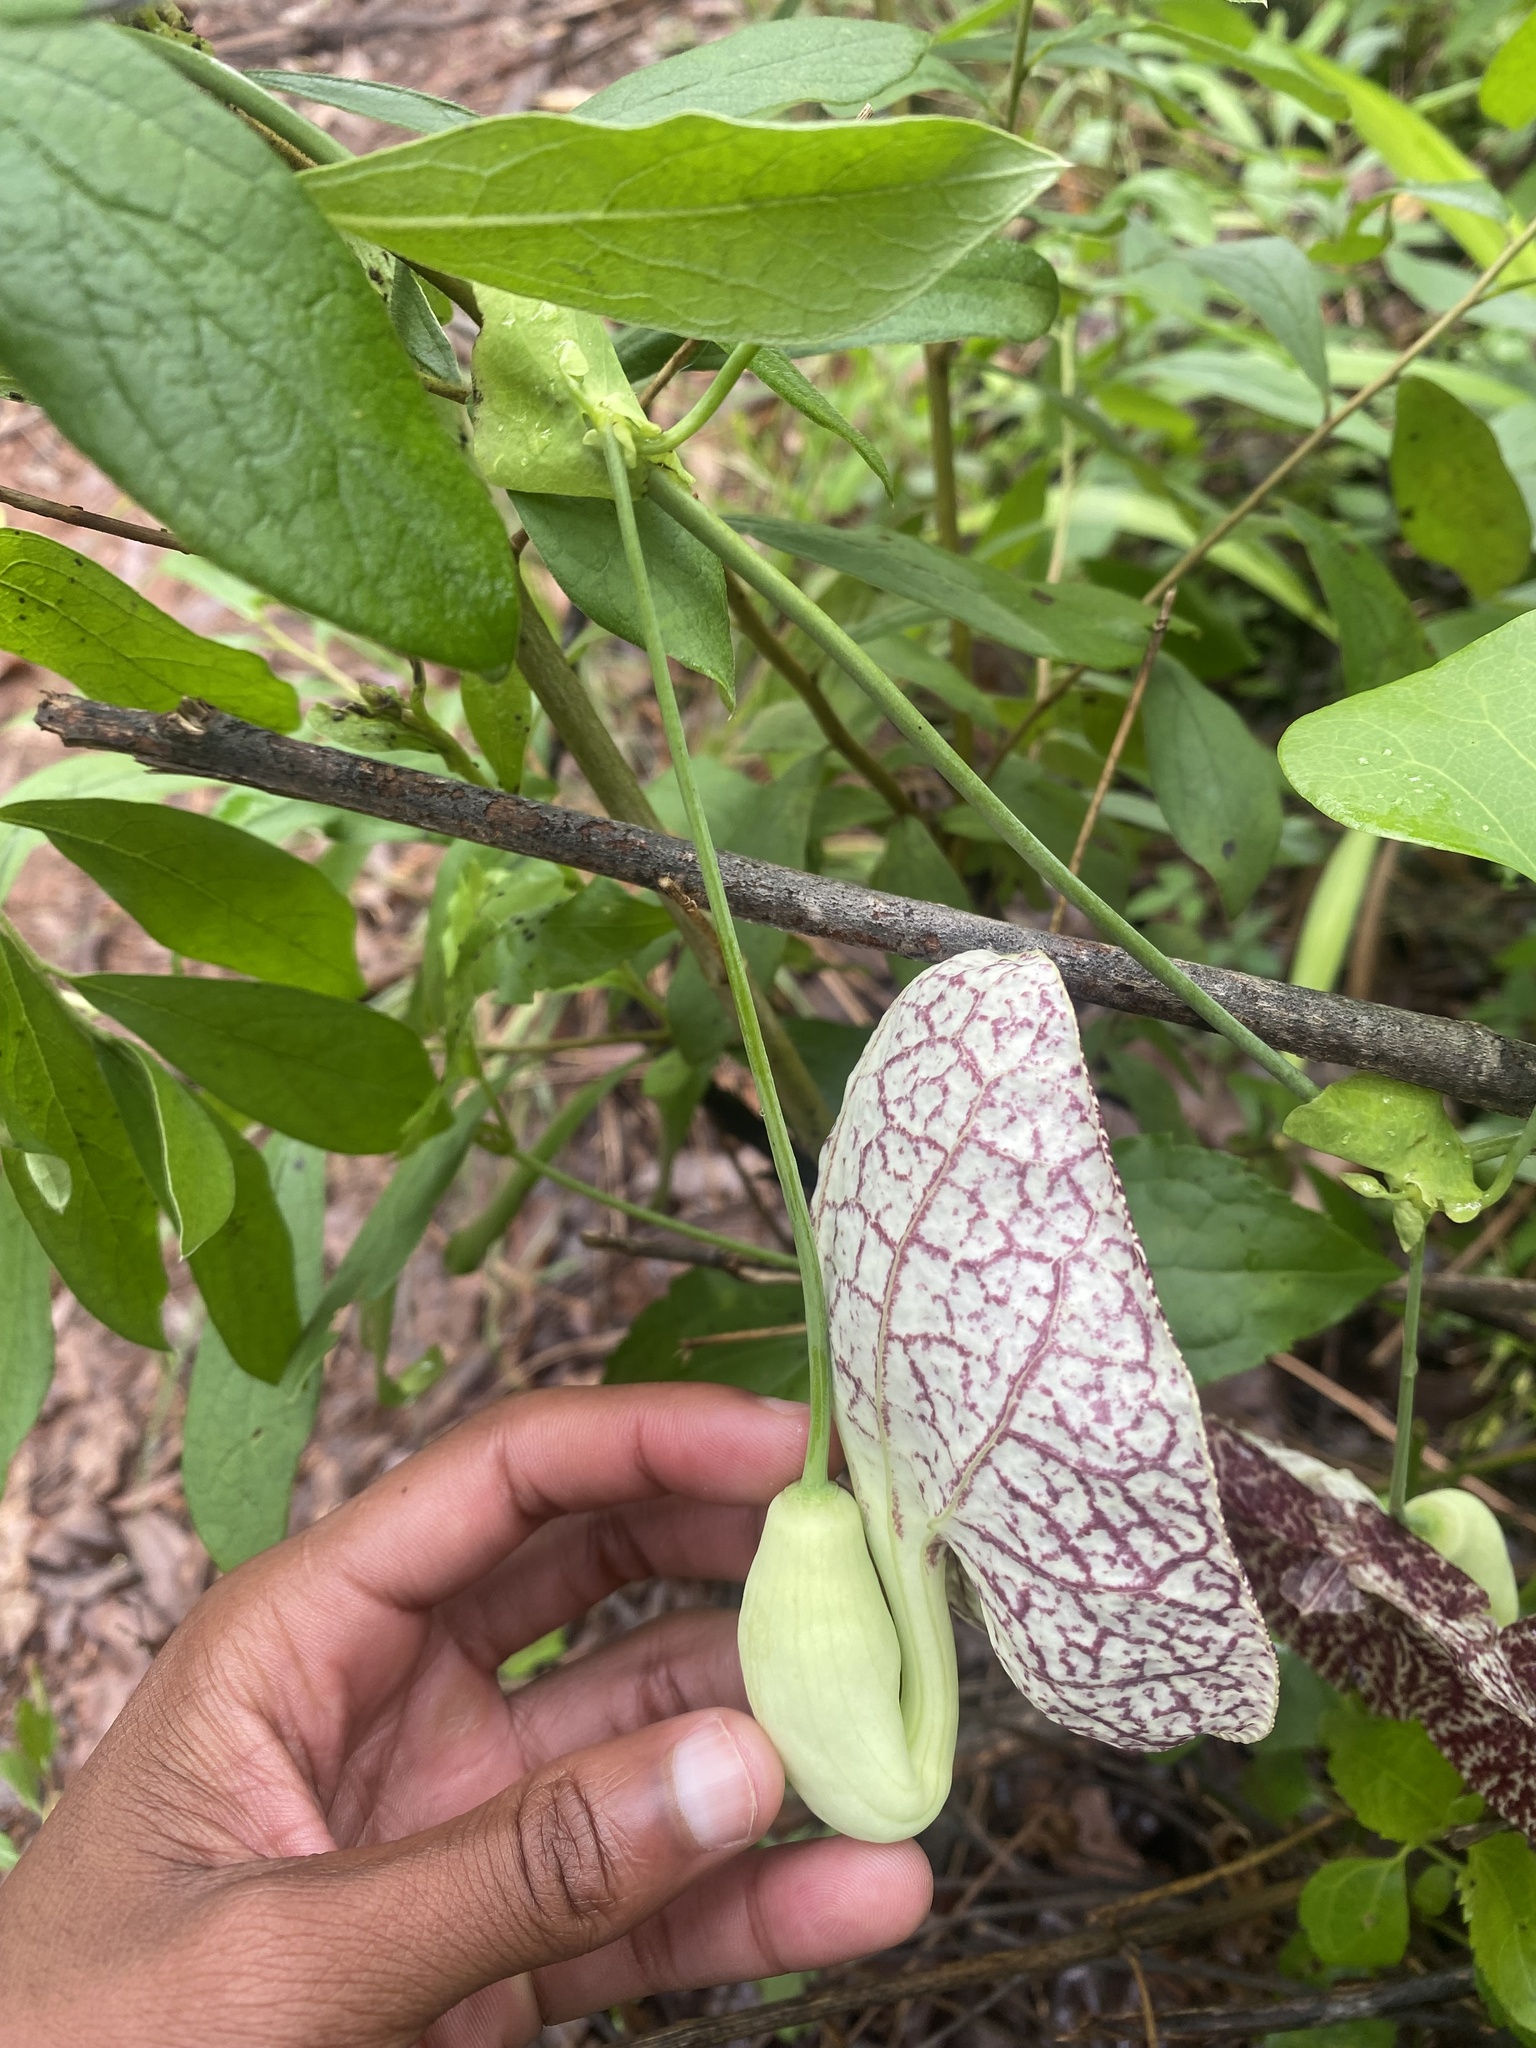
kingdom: Plantae
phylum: Tracheophyta
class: Magnoliopsida
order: Piperales
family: Aristolochiaceae
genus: Aristolochia
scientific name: Aristolochia littoralis
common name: Duck
